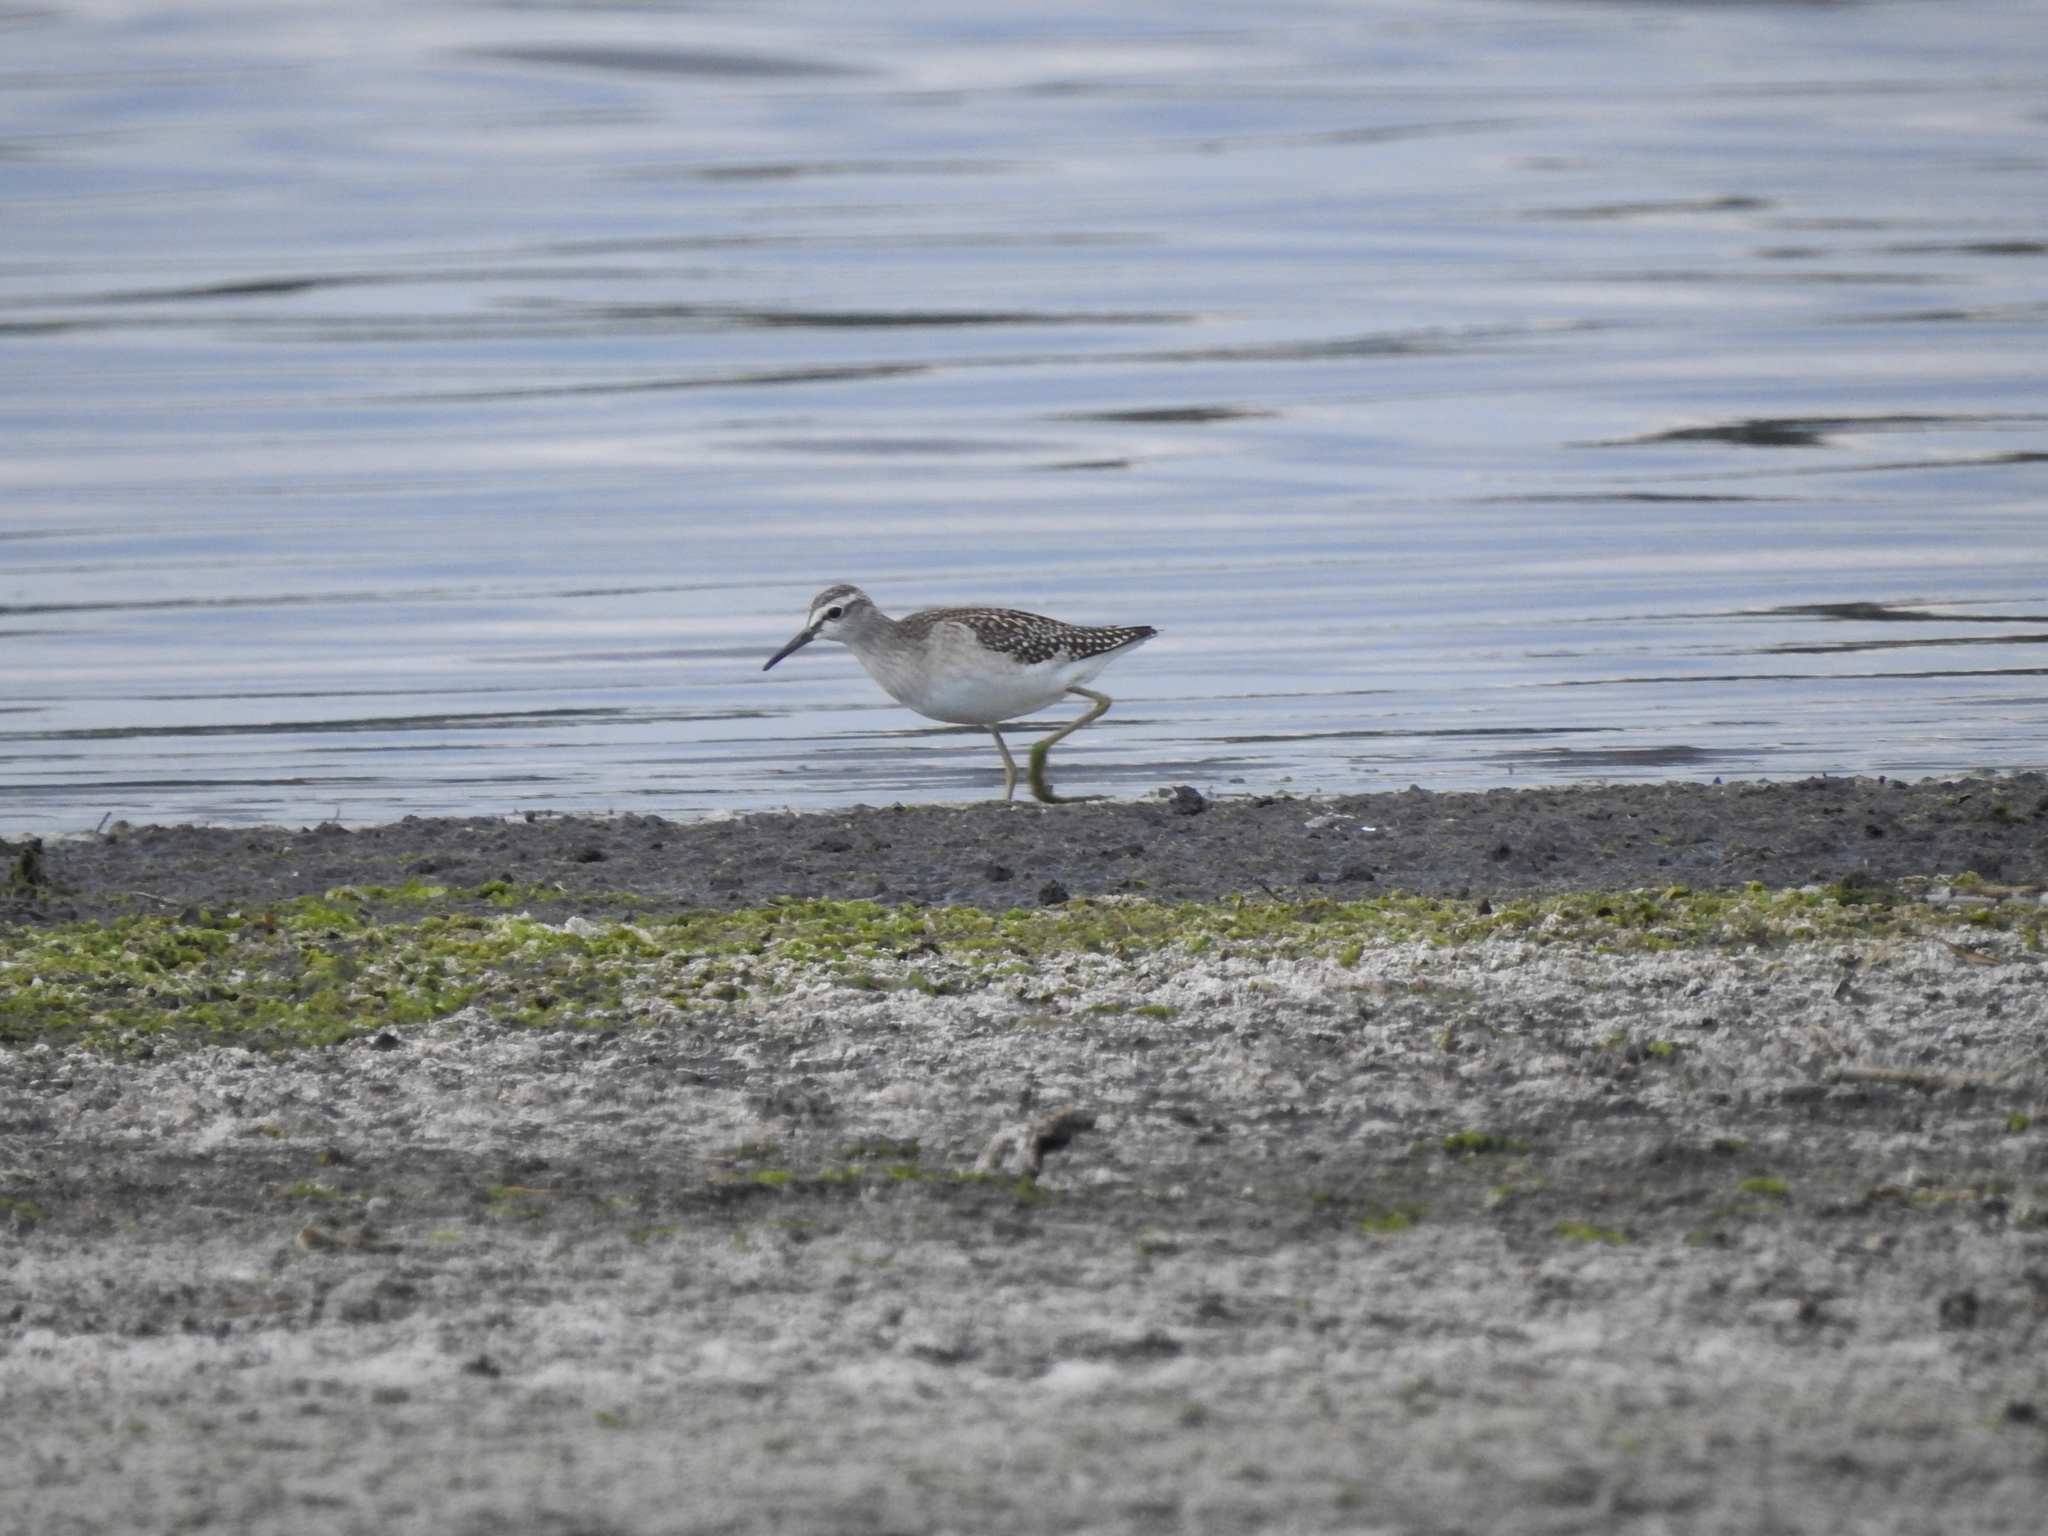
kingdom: Animalia
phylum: Chordata
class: Aves
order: Charadriiformes
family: Scolopacidae
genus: Tringa
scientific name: Tringa glareola
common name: Wood sandpiper
